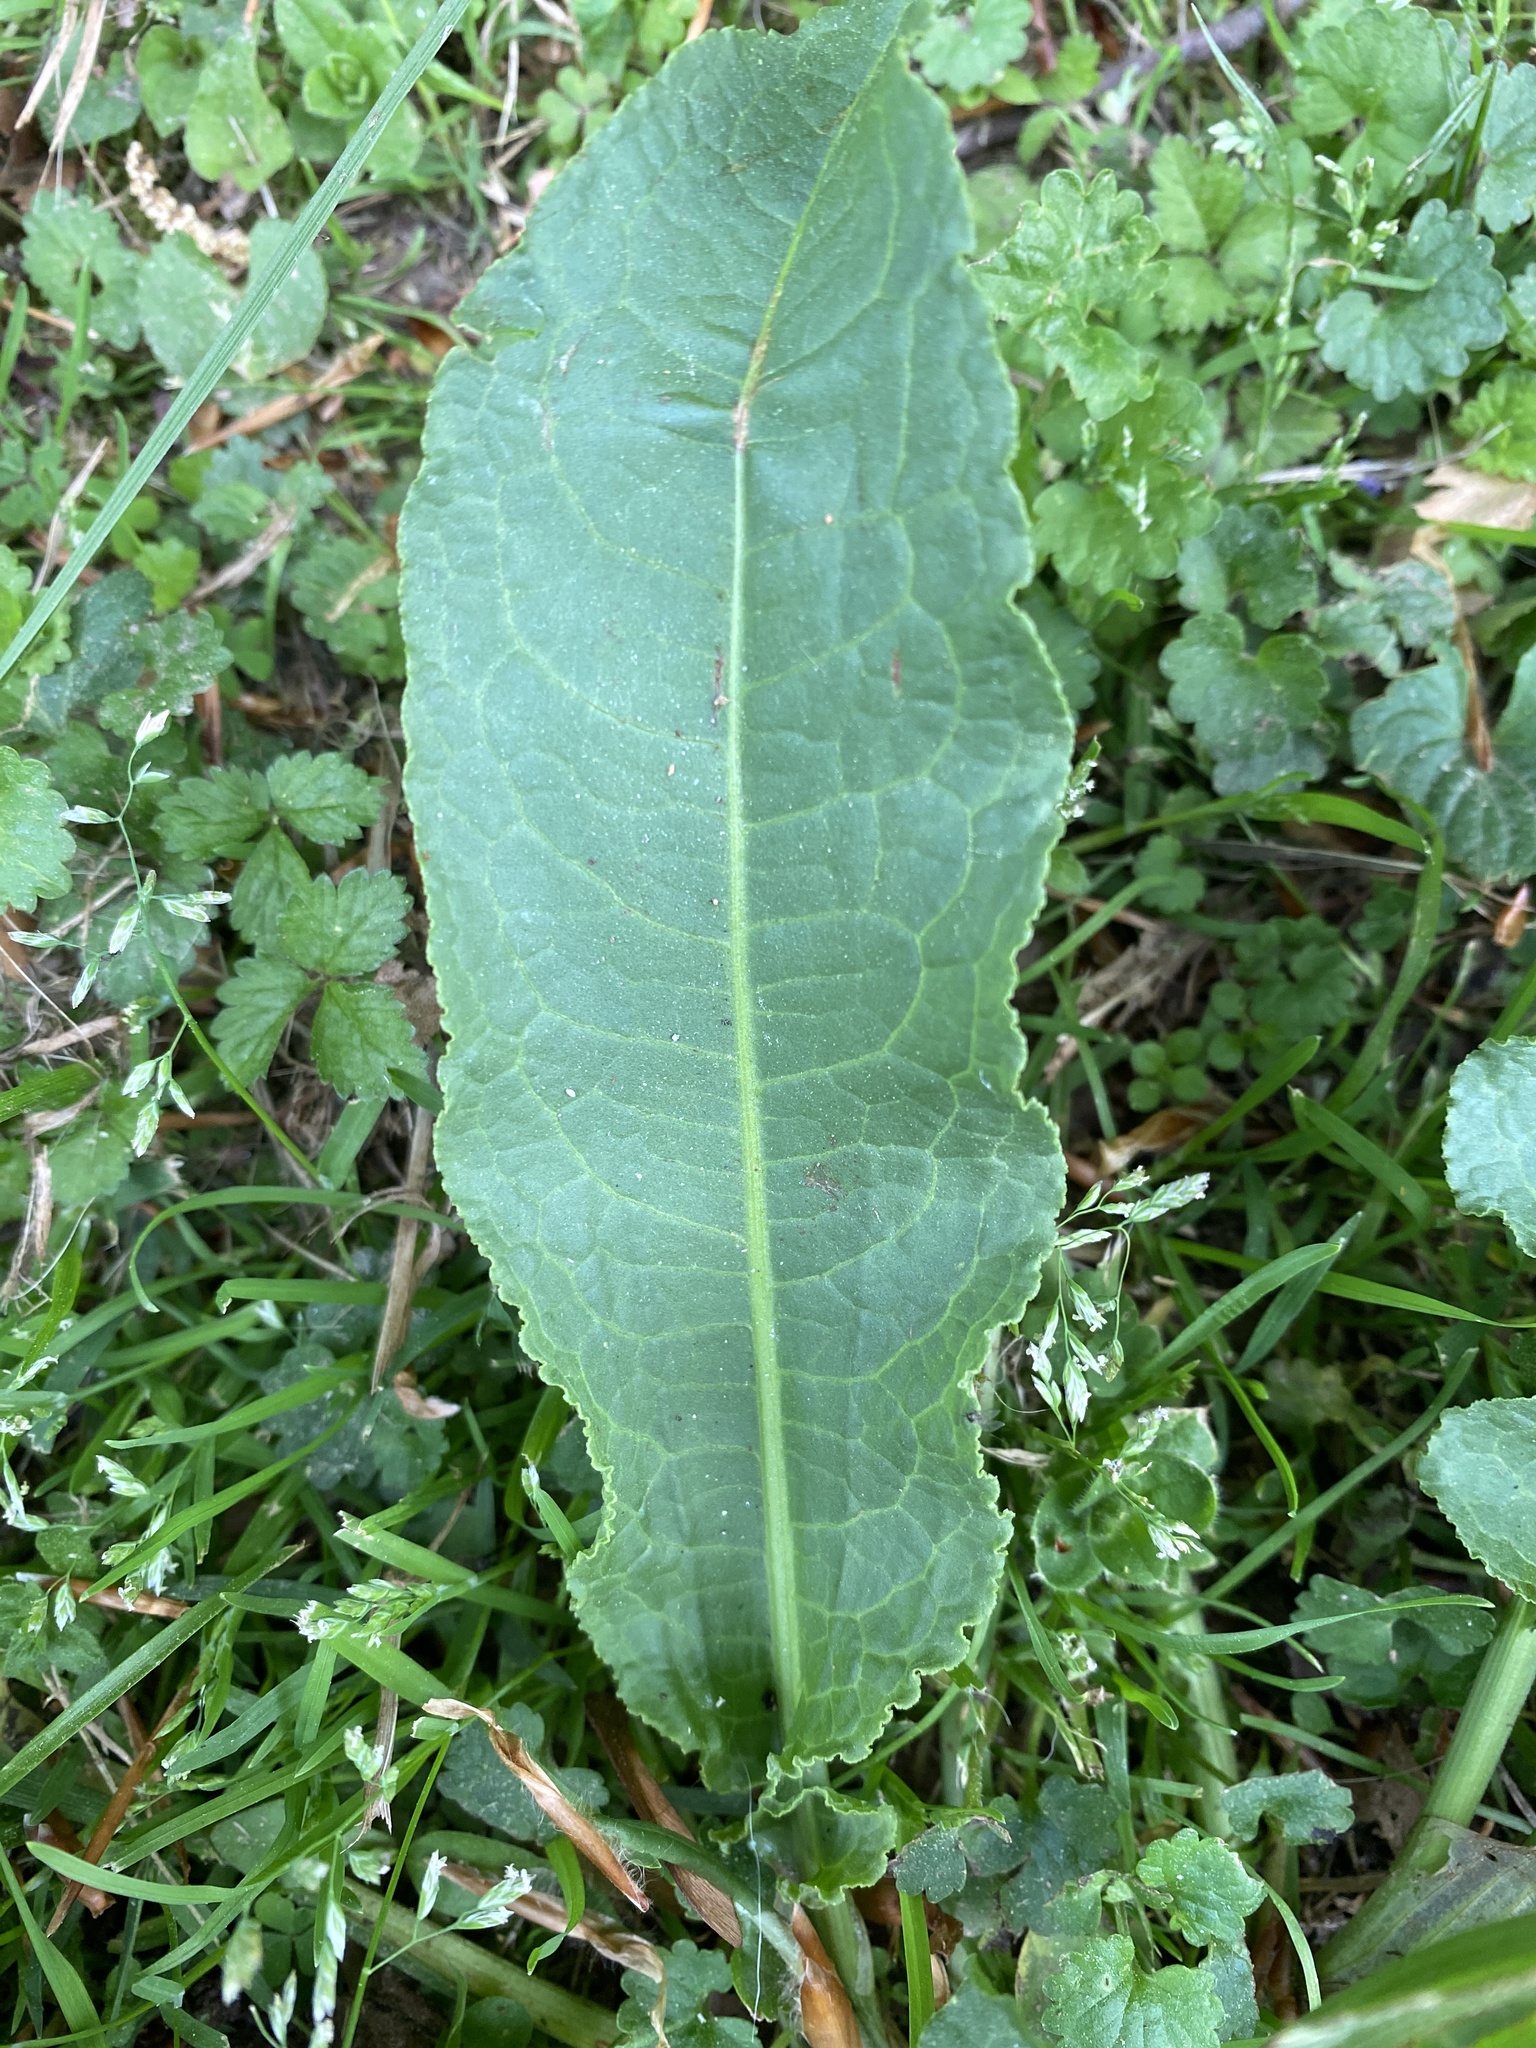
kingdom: Plantae
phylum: Tracheophyta
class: Magnoliopsida
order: Caryophyllales
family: Polygonaceae
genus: Rumex
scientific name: Rumex crispus
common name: Curled dock
